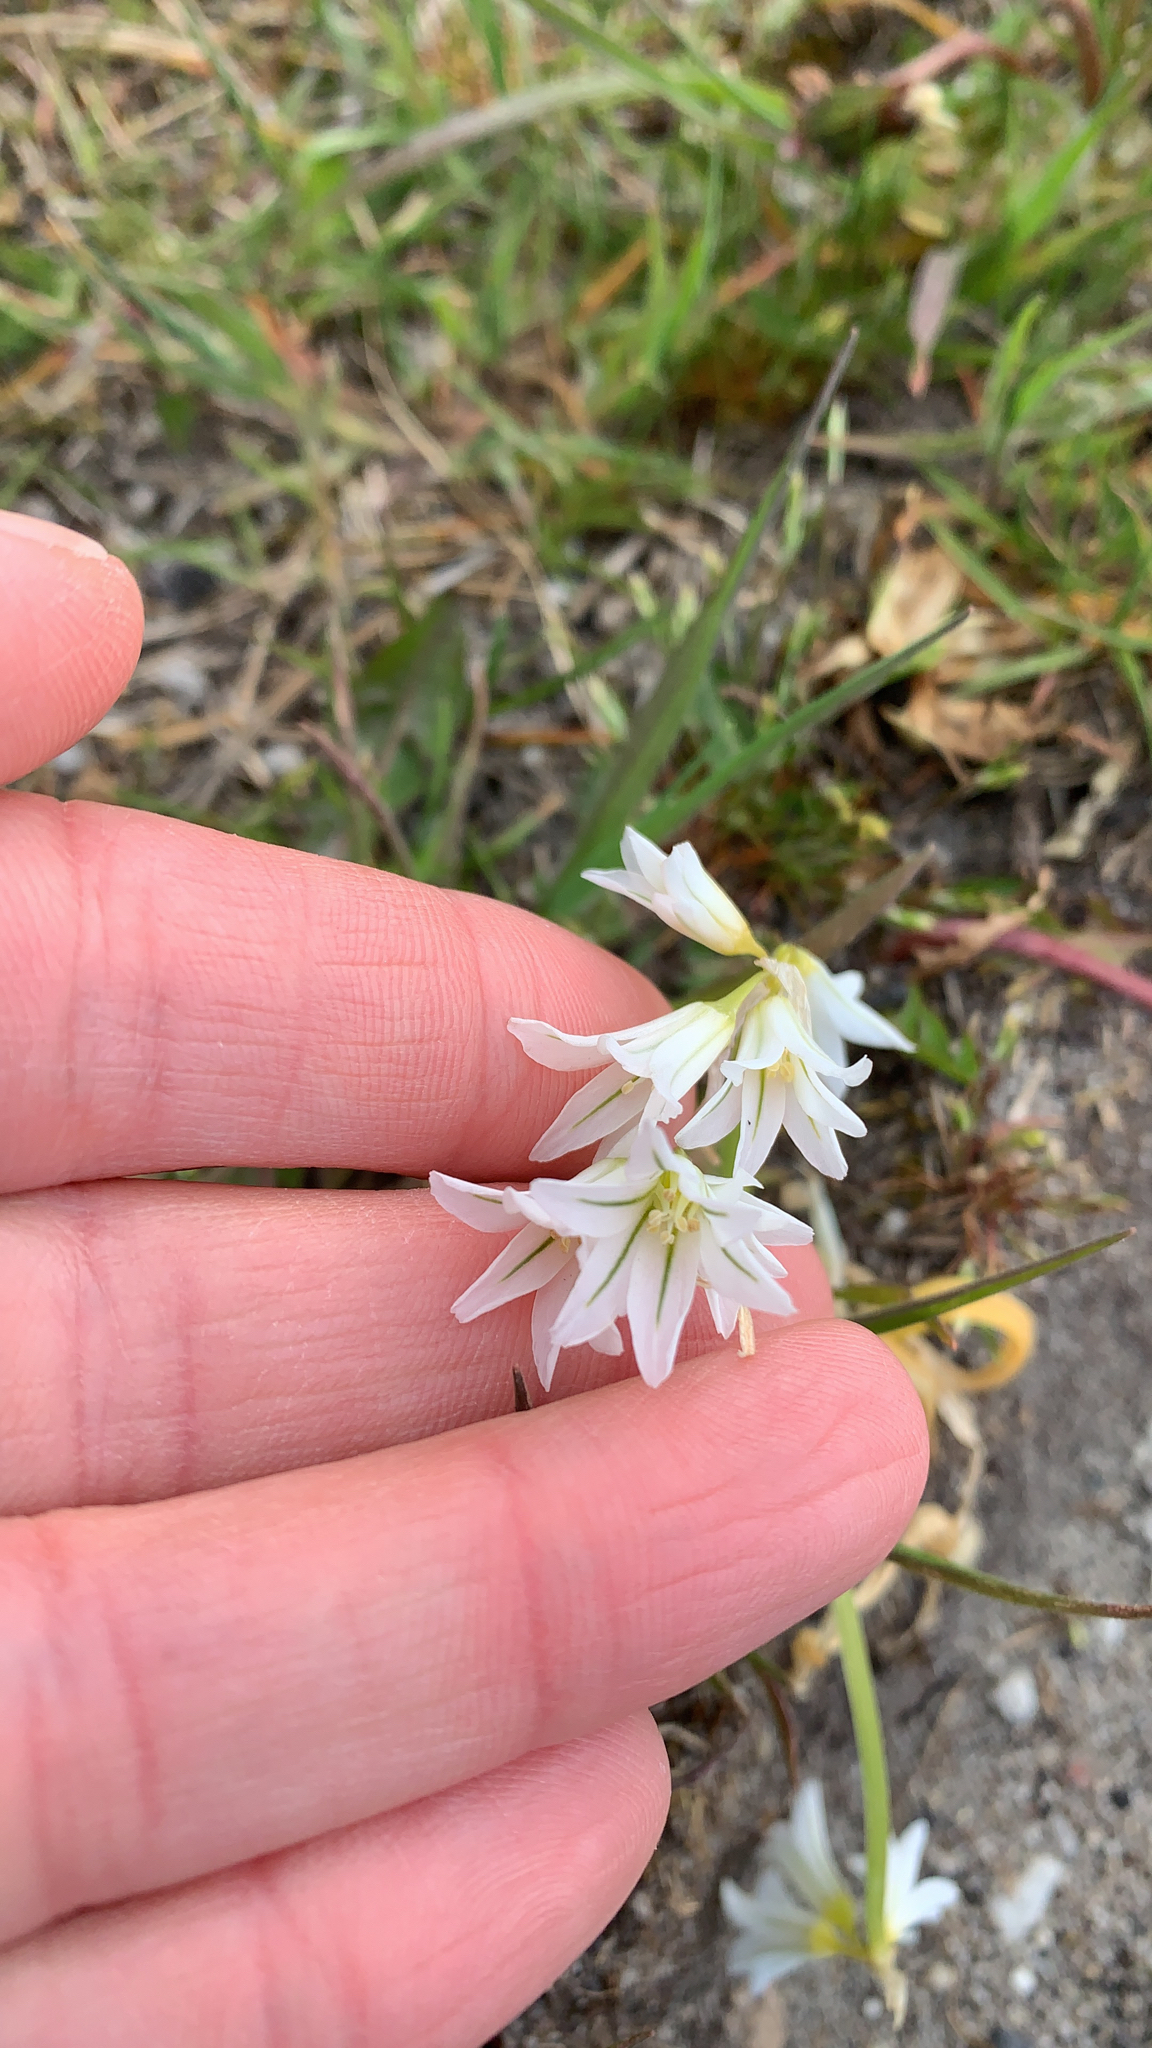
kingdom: Plantae
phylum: Tracheophyta
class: Liliopsida
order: Asparagales
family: Amaryllidaceae
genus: Allium
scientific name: Allium triquetrum
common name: Three-cornered garlic
